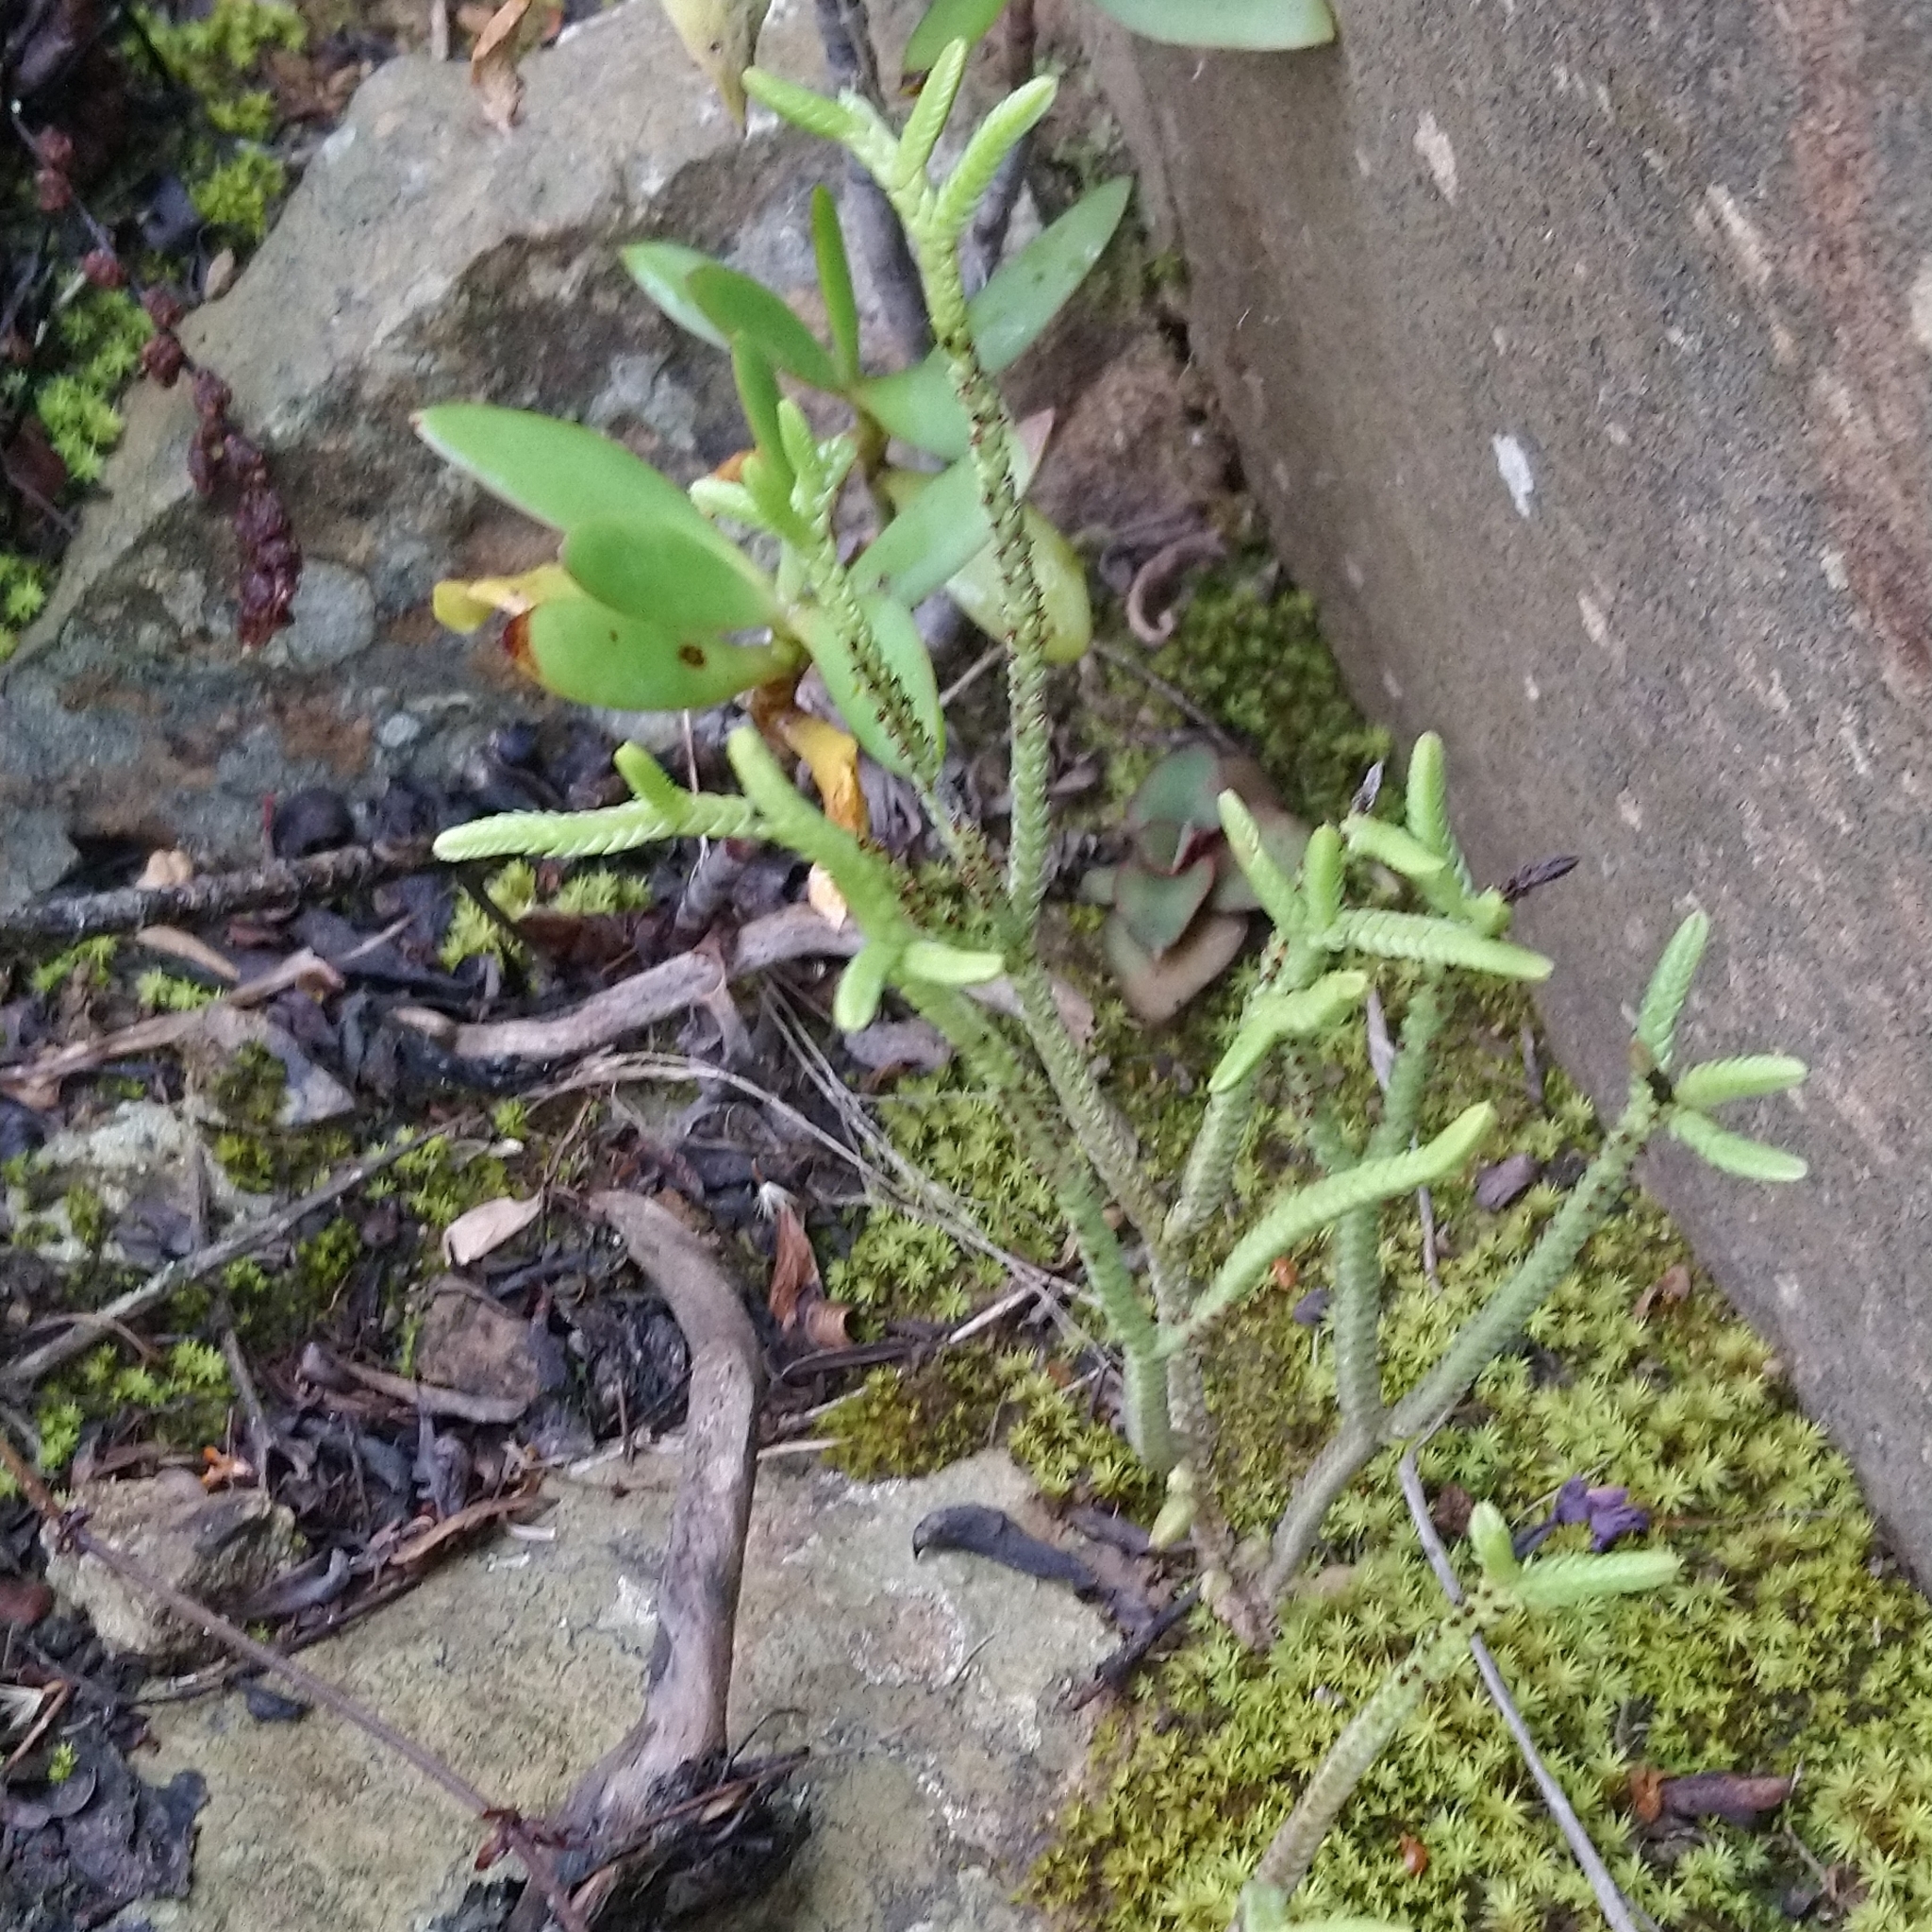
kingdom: Plantae
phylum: Tracheophyta
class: Magnoliopsida
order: Saxifragales
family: Crassulaceae
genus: Crassula
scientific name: Crassula muscosa
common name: Toy-cypress
